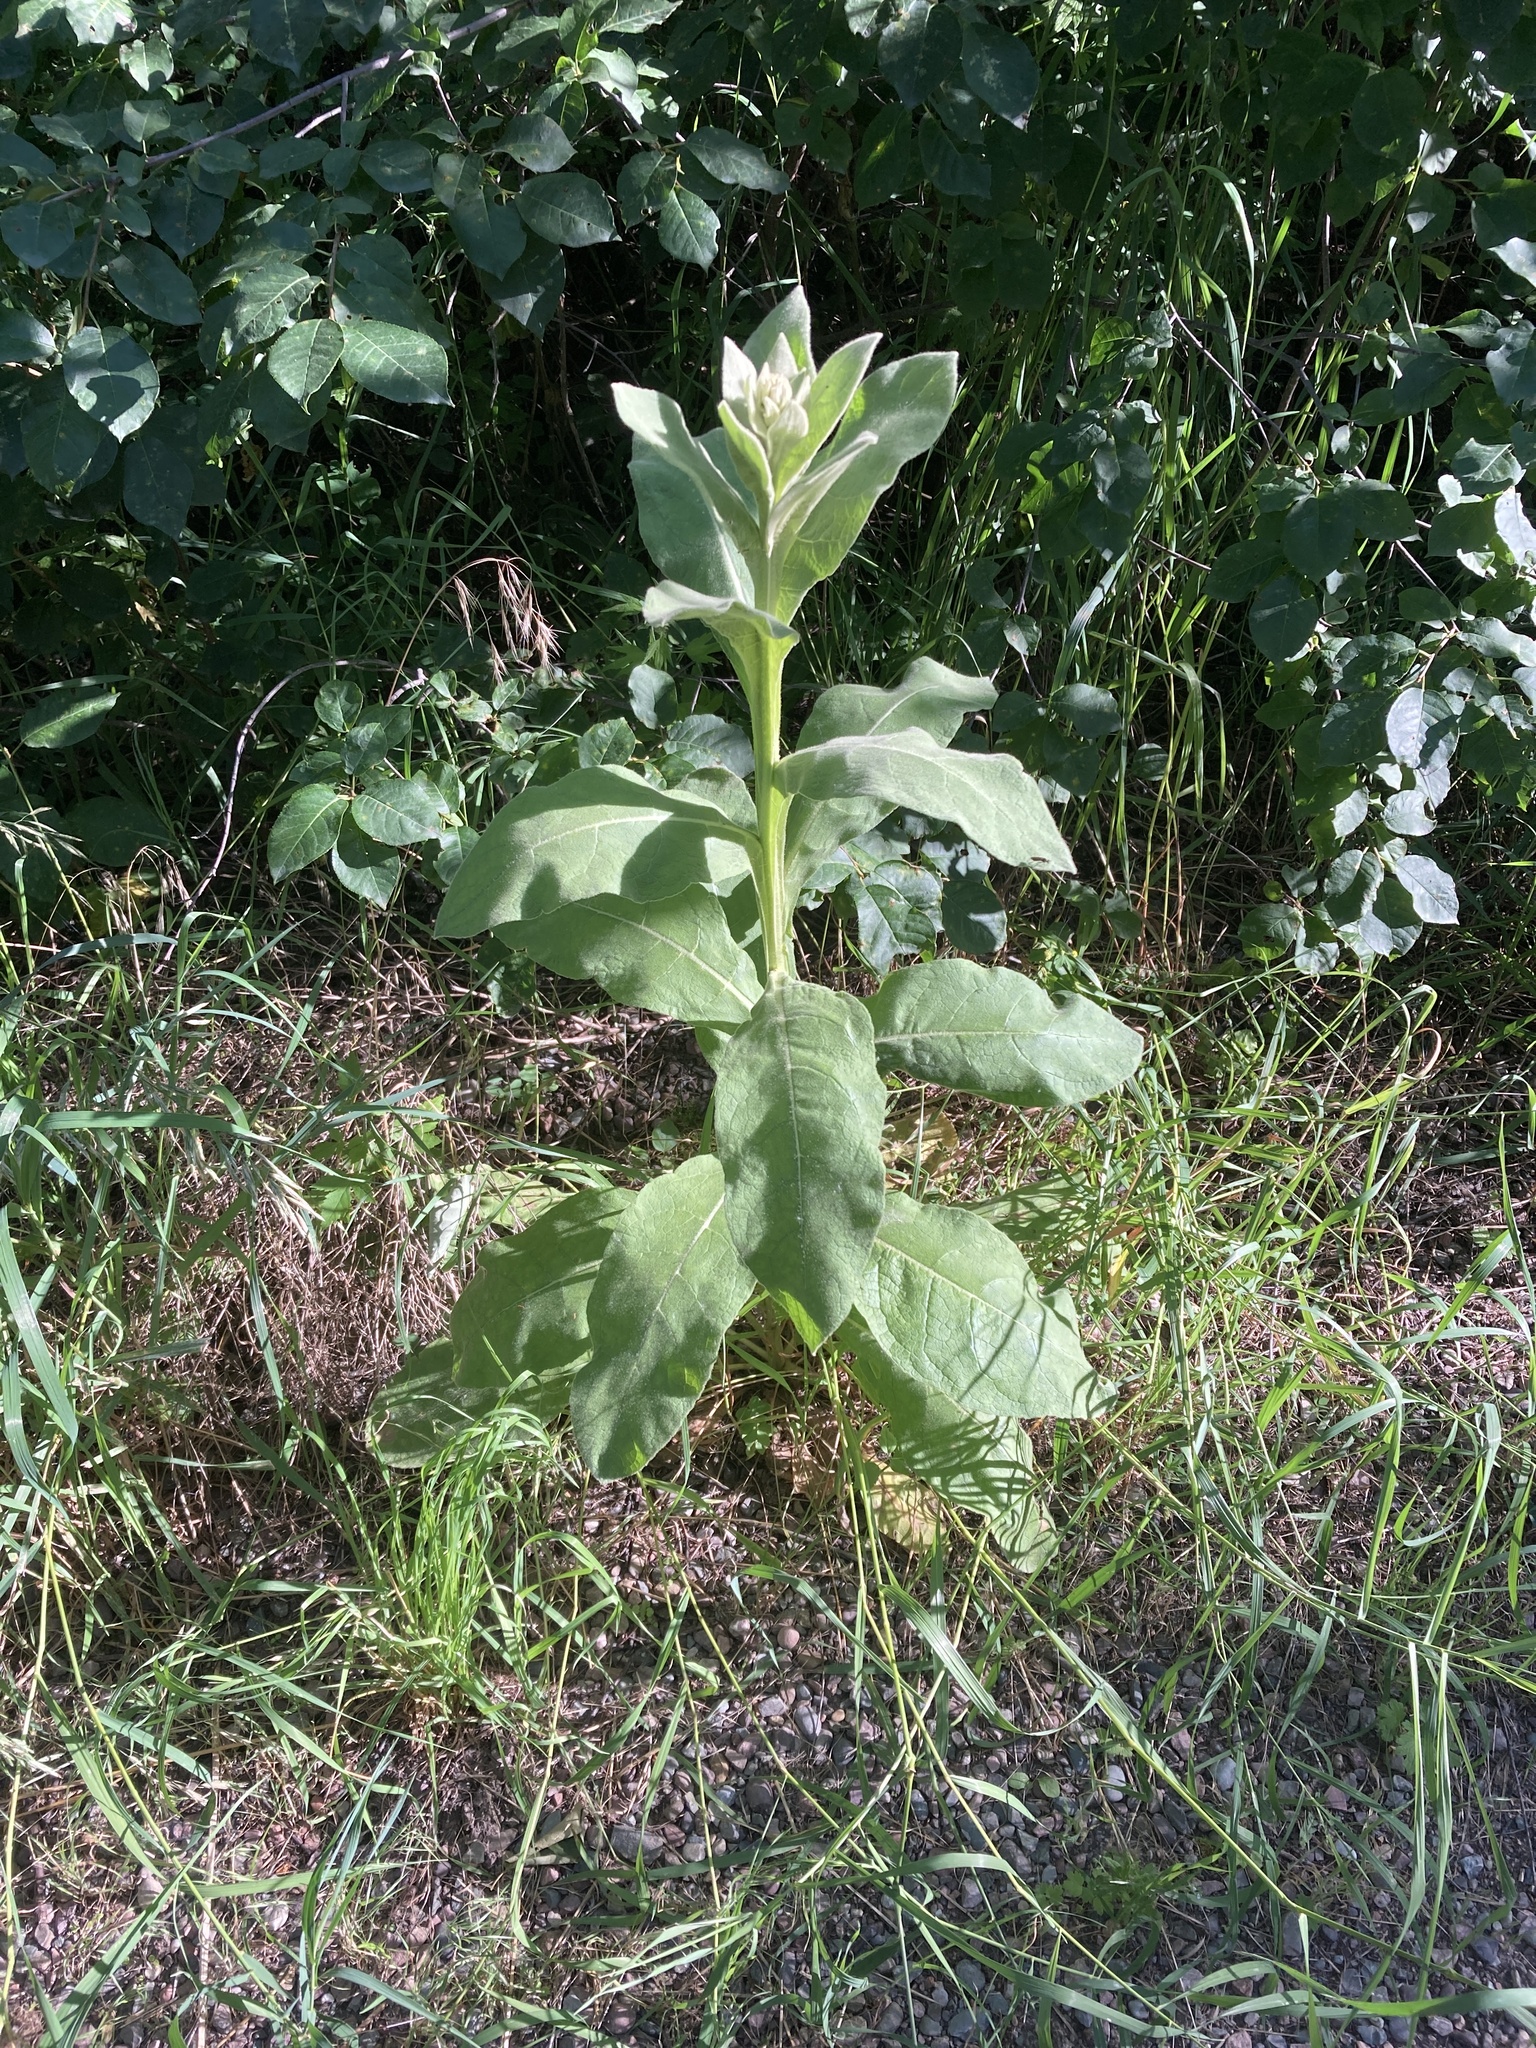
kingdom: Plantae
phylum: Tracheophyta
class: Magnoliopsida
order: Lamiales
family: Scrophulariaceae
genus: Verbascum
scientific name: Verbascum thapsus
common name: Common mullein
